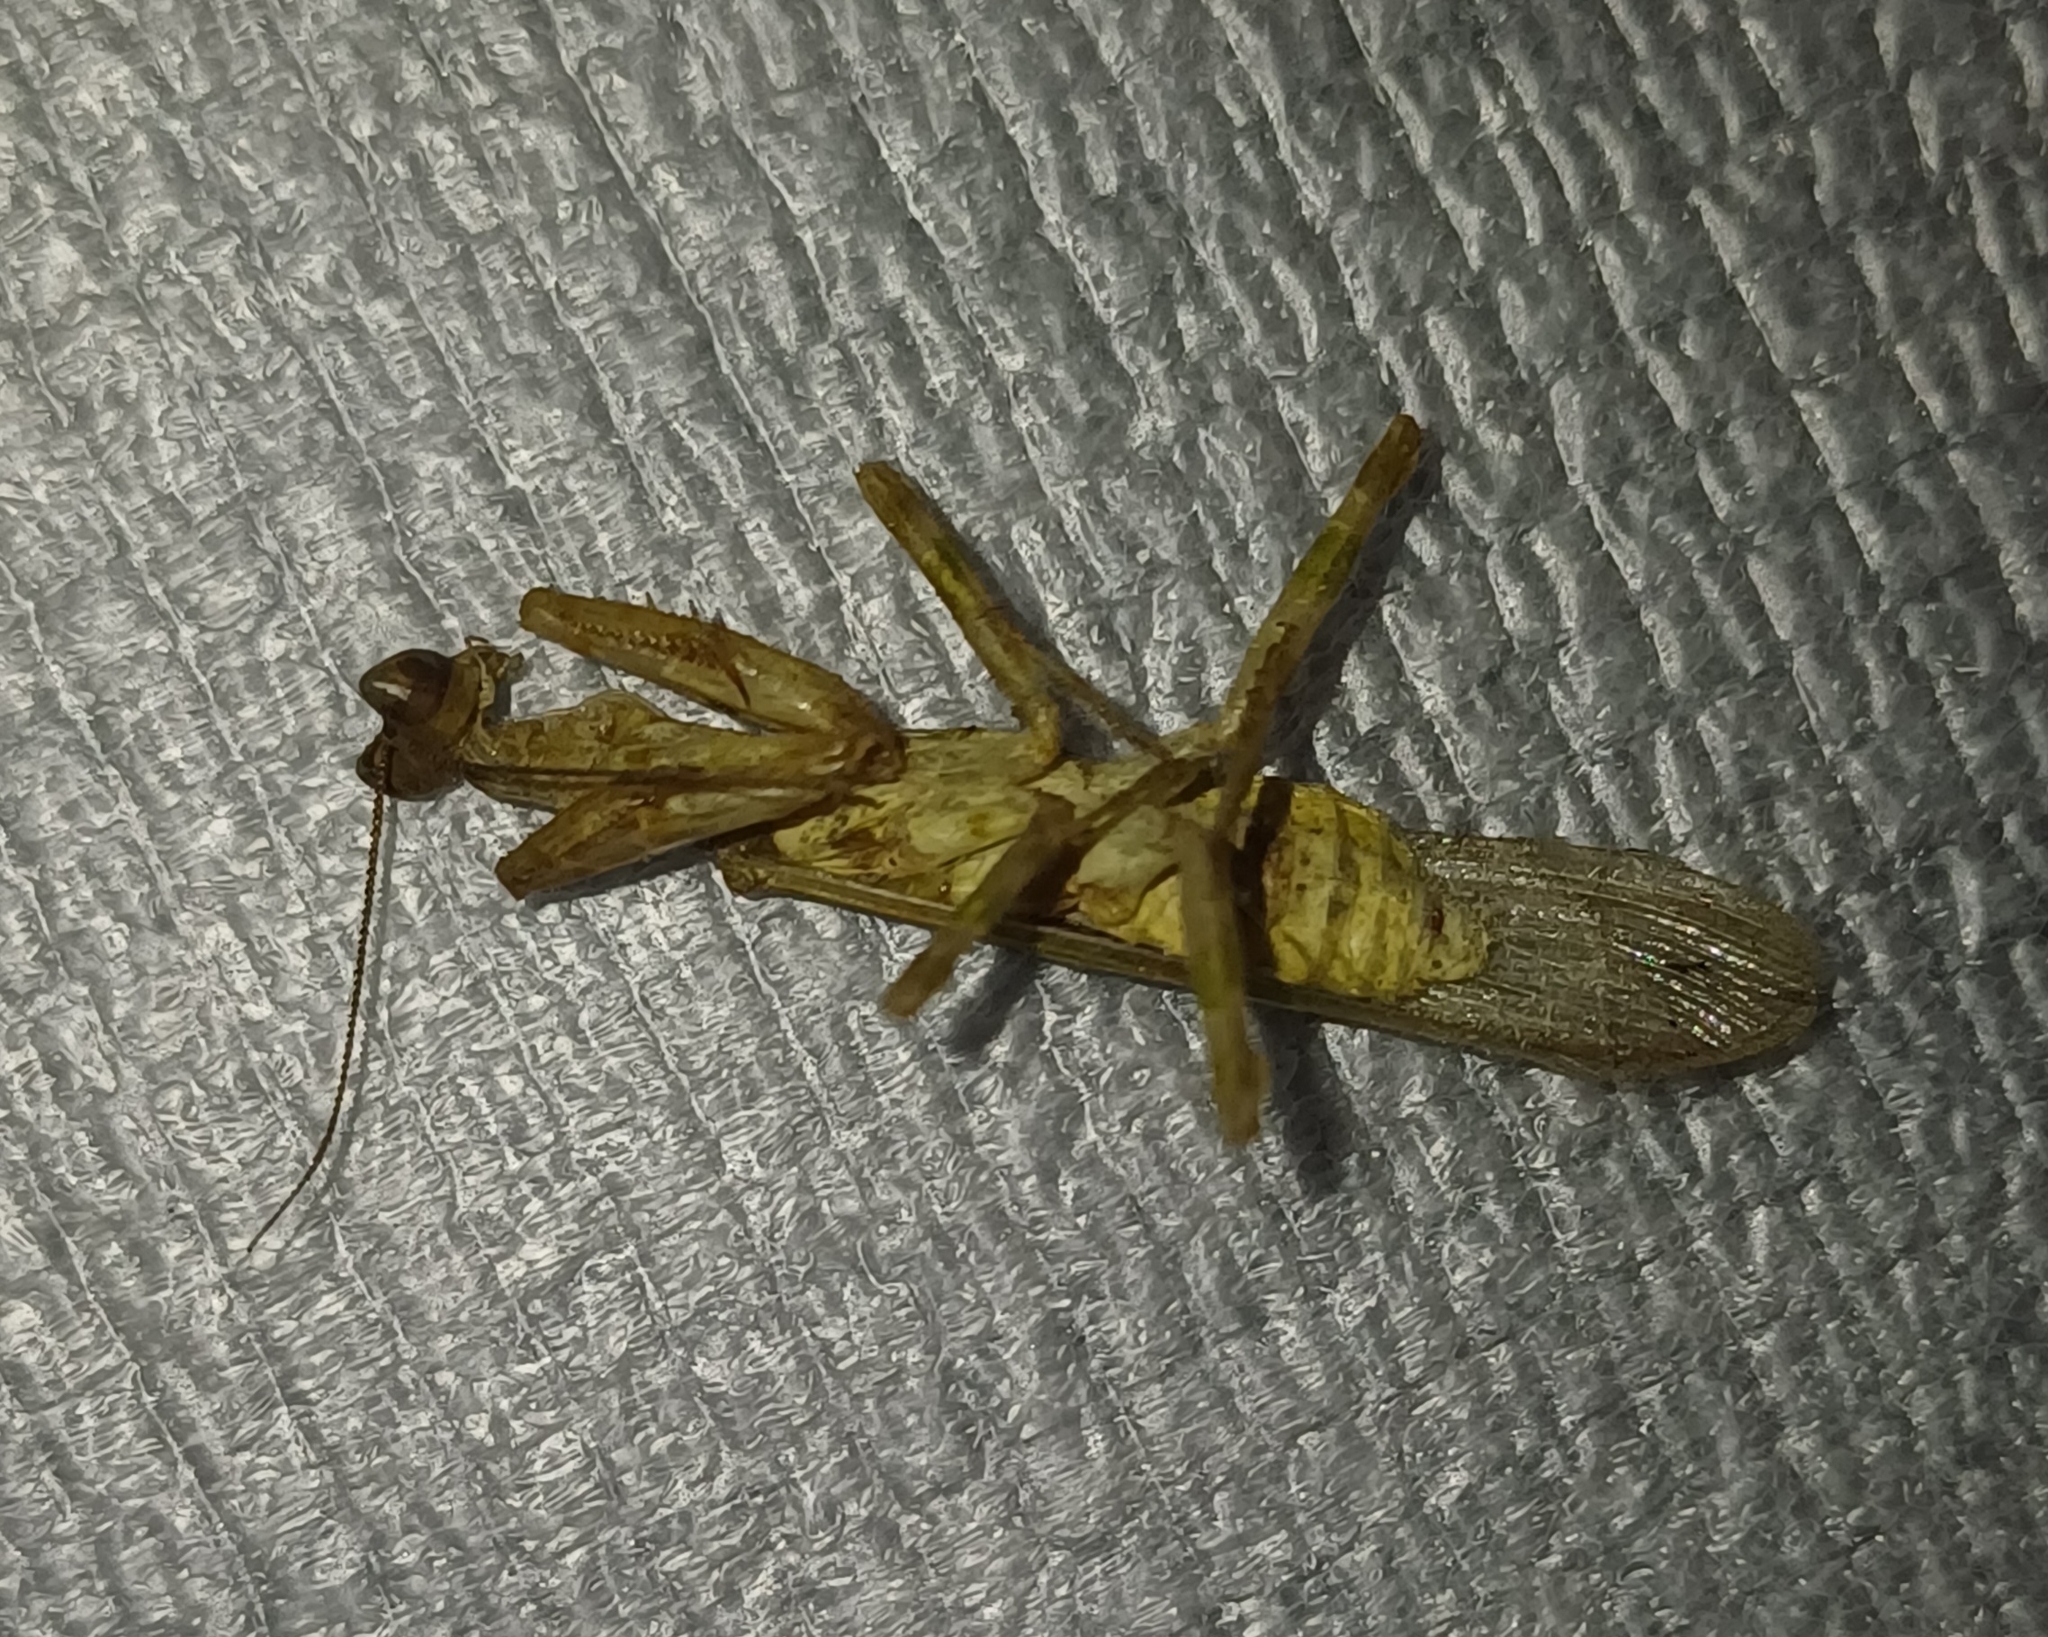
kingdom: Animalia
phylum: Arthropoda
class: Insecta
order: Mantodea
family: Hymenopodidae
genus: Creobroter
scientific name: Creobroter gemmatus
